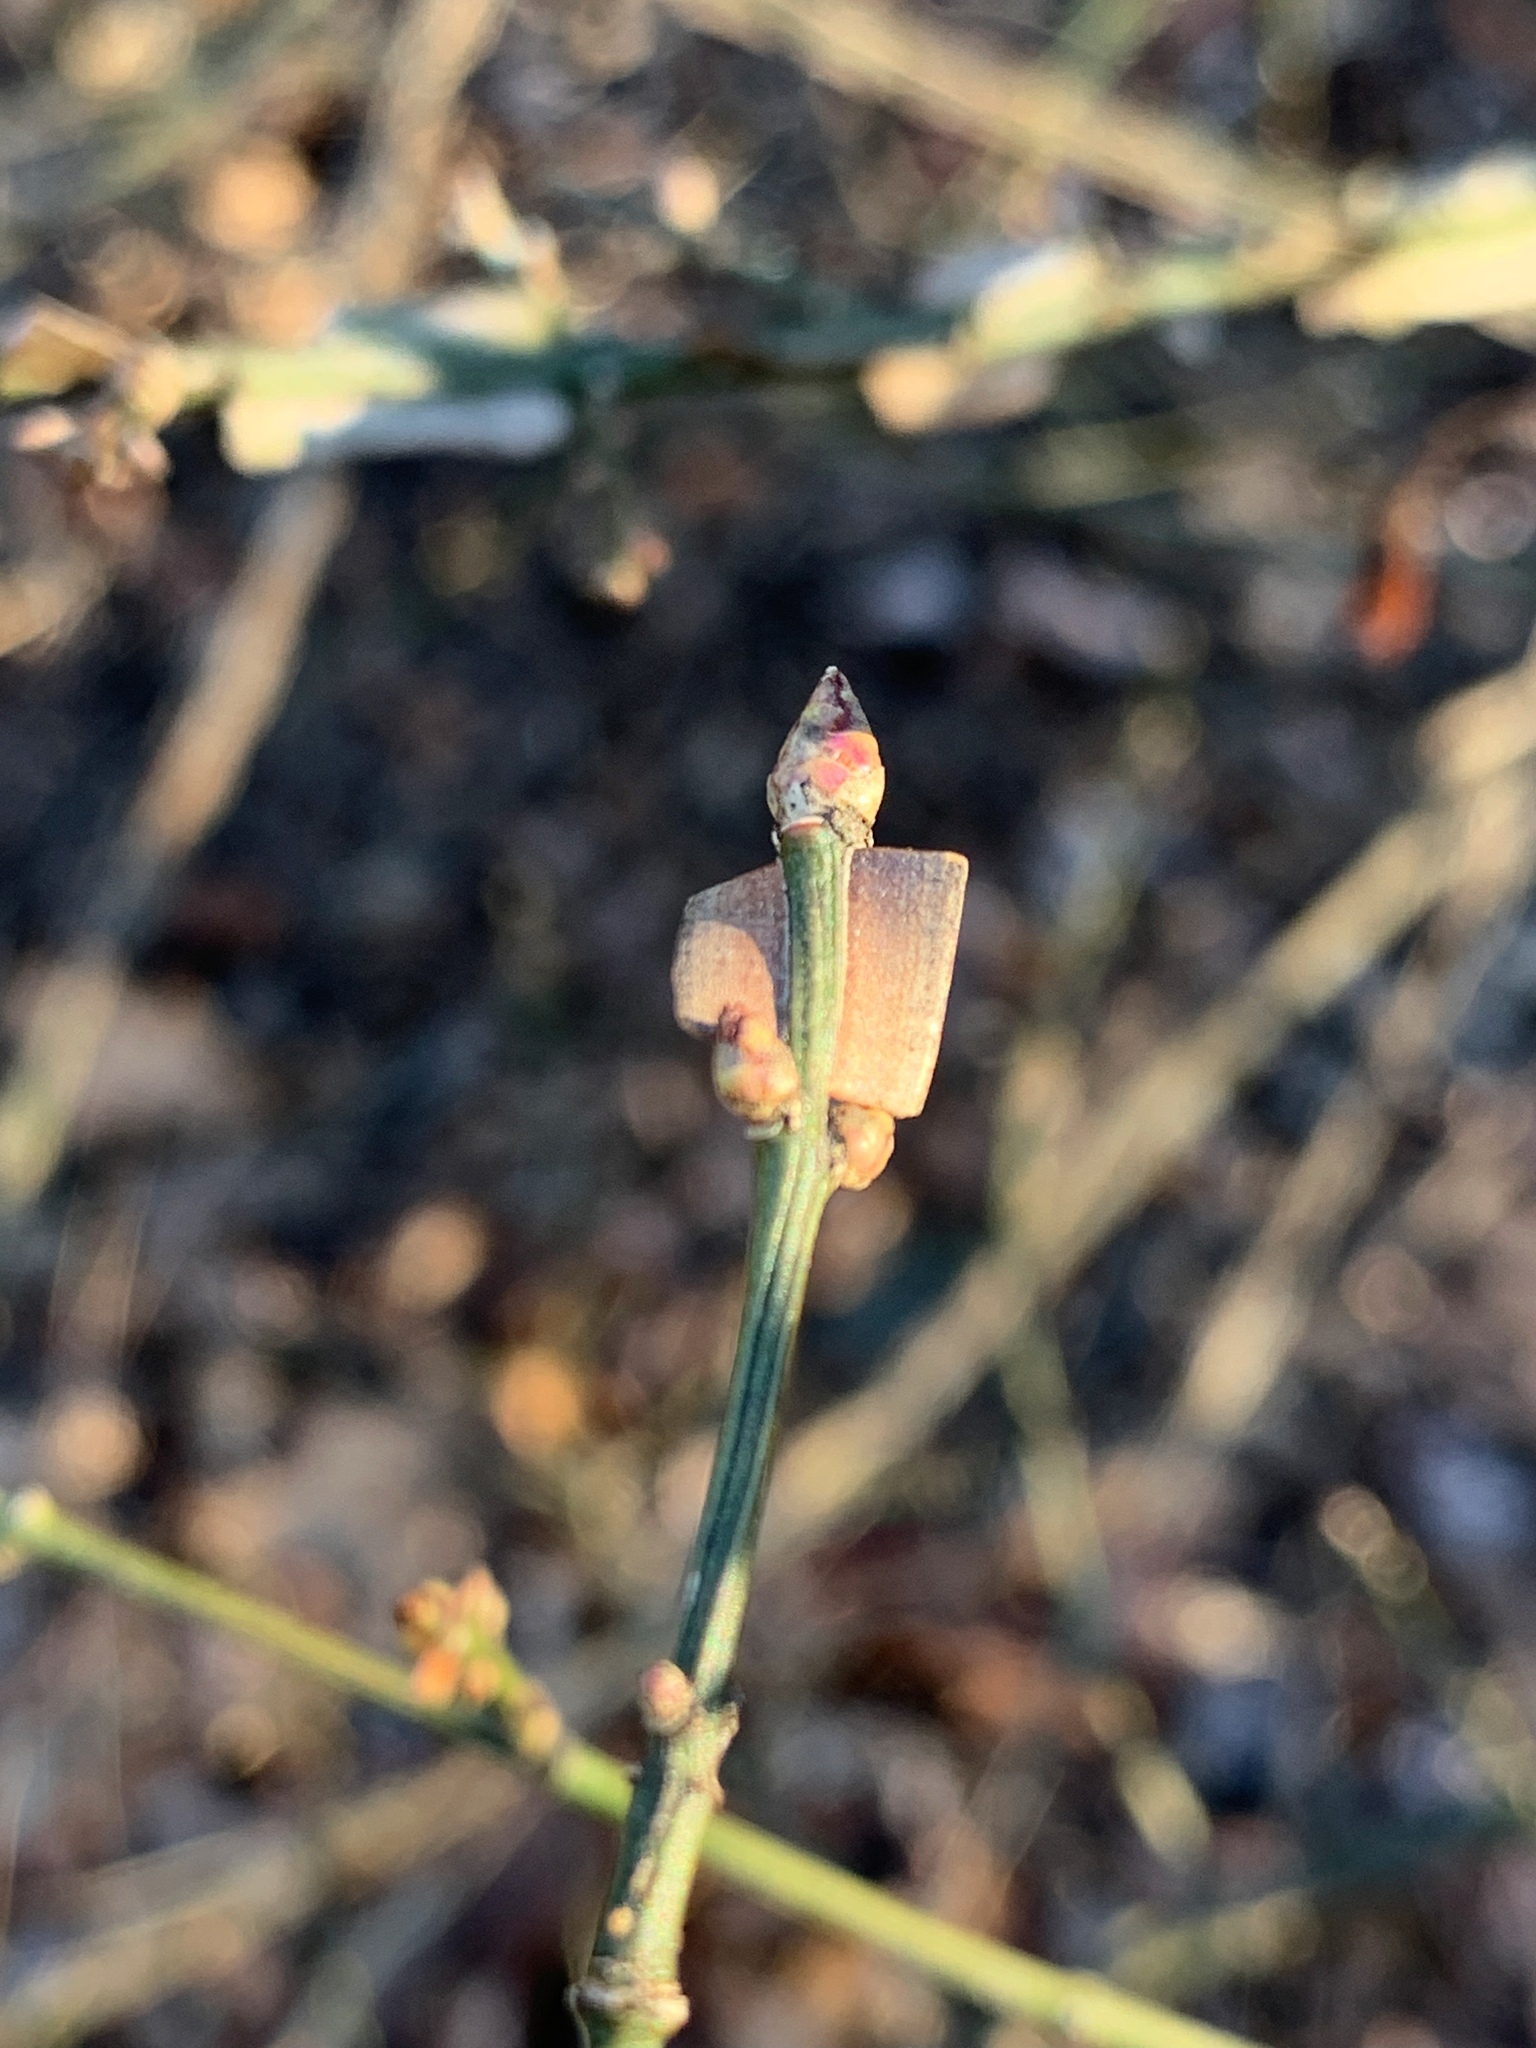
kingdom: Plantae
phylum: Tracheophyta
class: Magnoliopsida
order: Celastrales
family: Celastraceae
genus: Euonymus
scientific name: Euonymus alatus
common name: Winged euonymus
